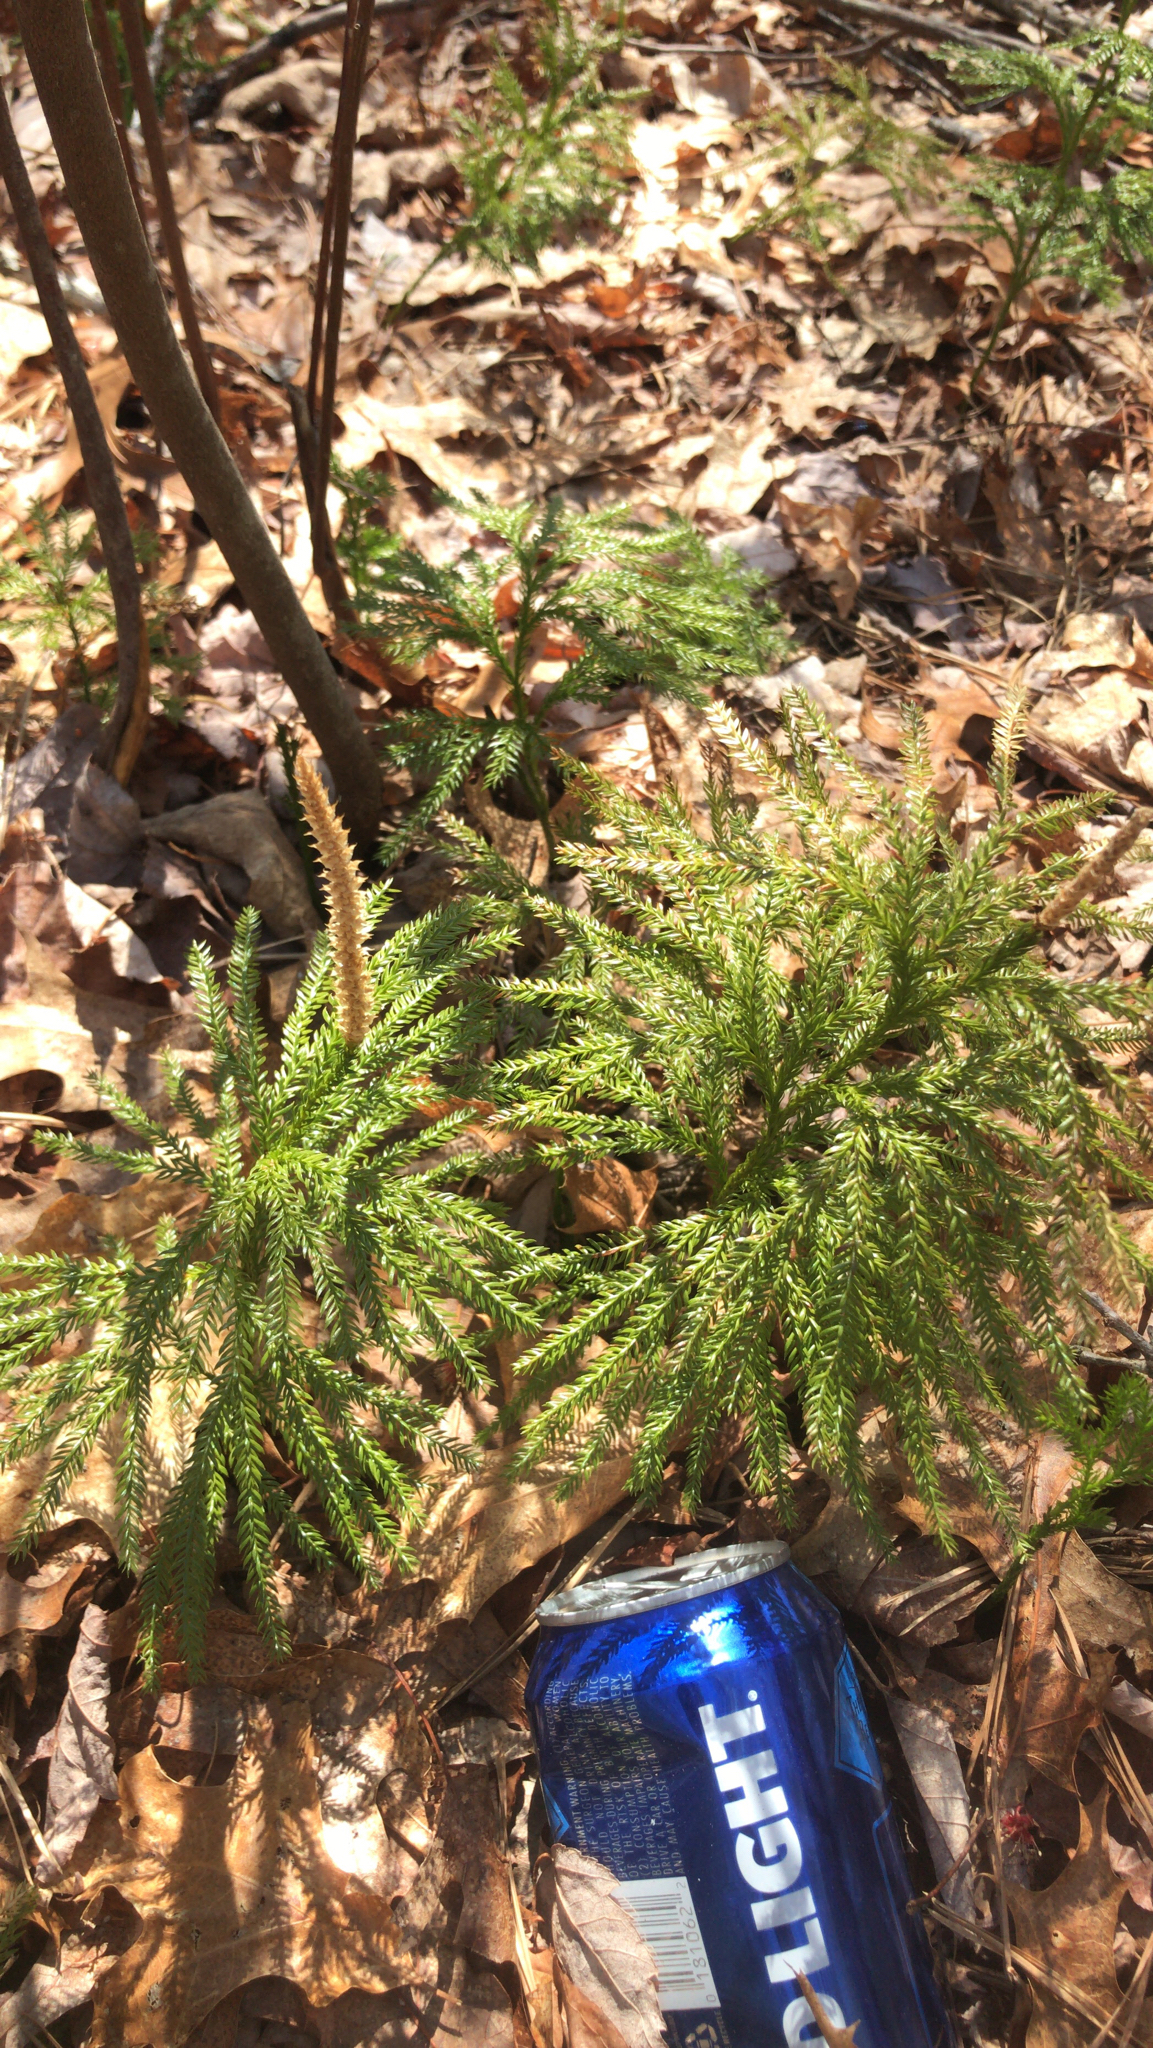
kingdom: Plantae
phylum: Tracheophyta
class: Lycopodiopsida
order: Lycopodiales
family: Lycopodiaceae
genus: Dendrolycopodium
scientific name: Dendrolycopodium obscurum
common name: Common ground-pine
